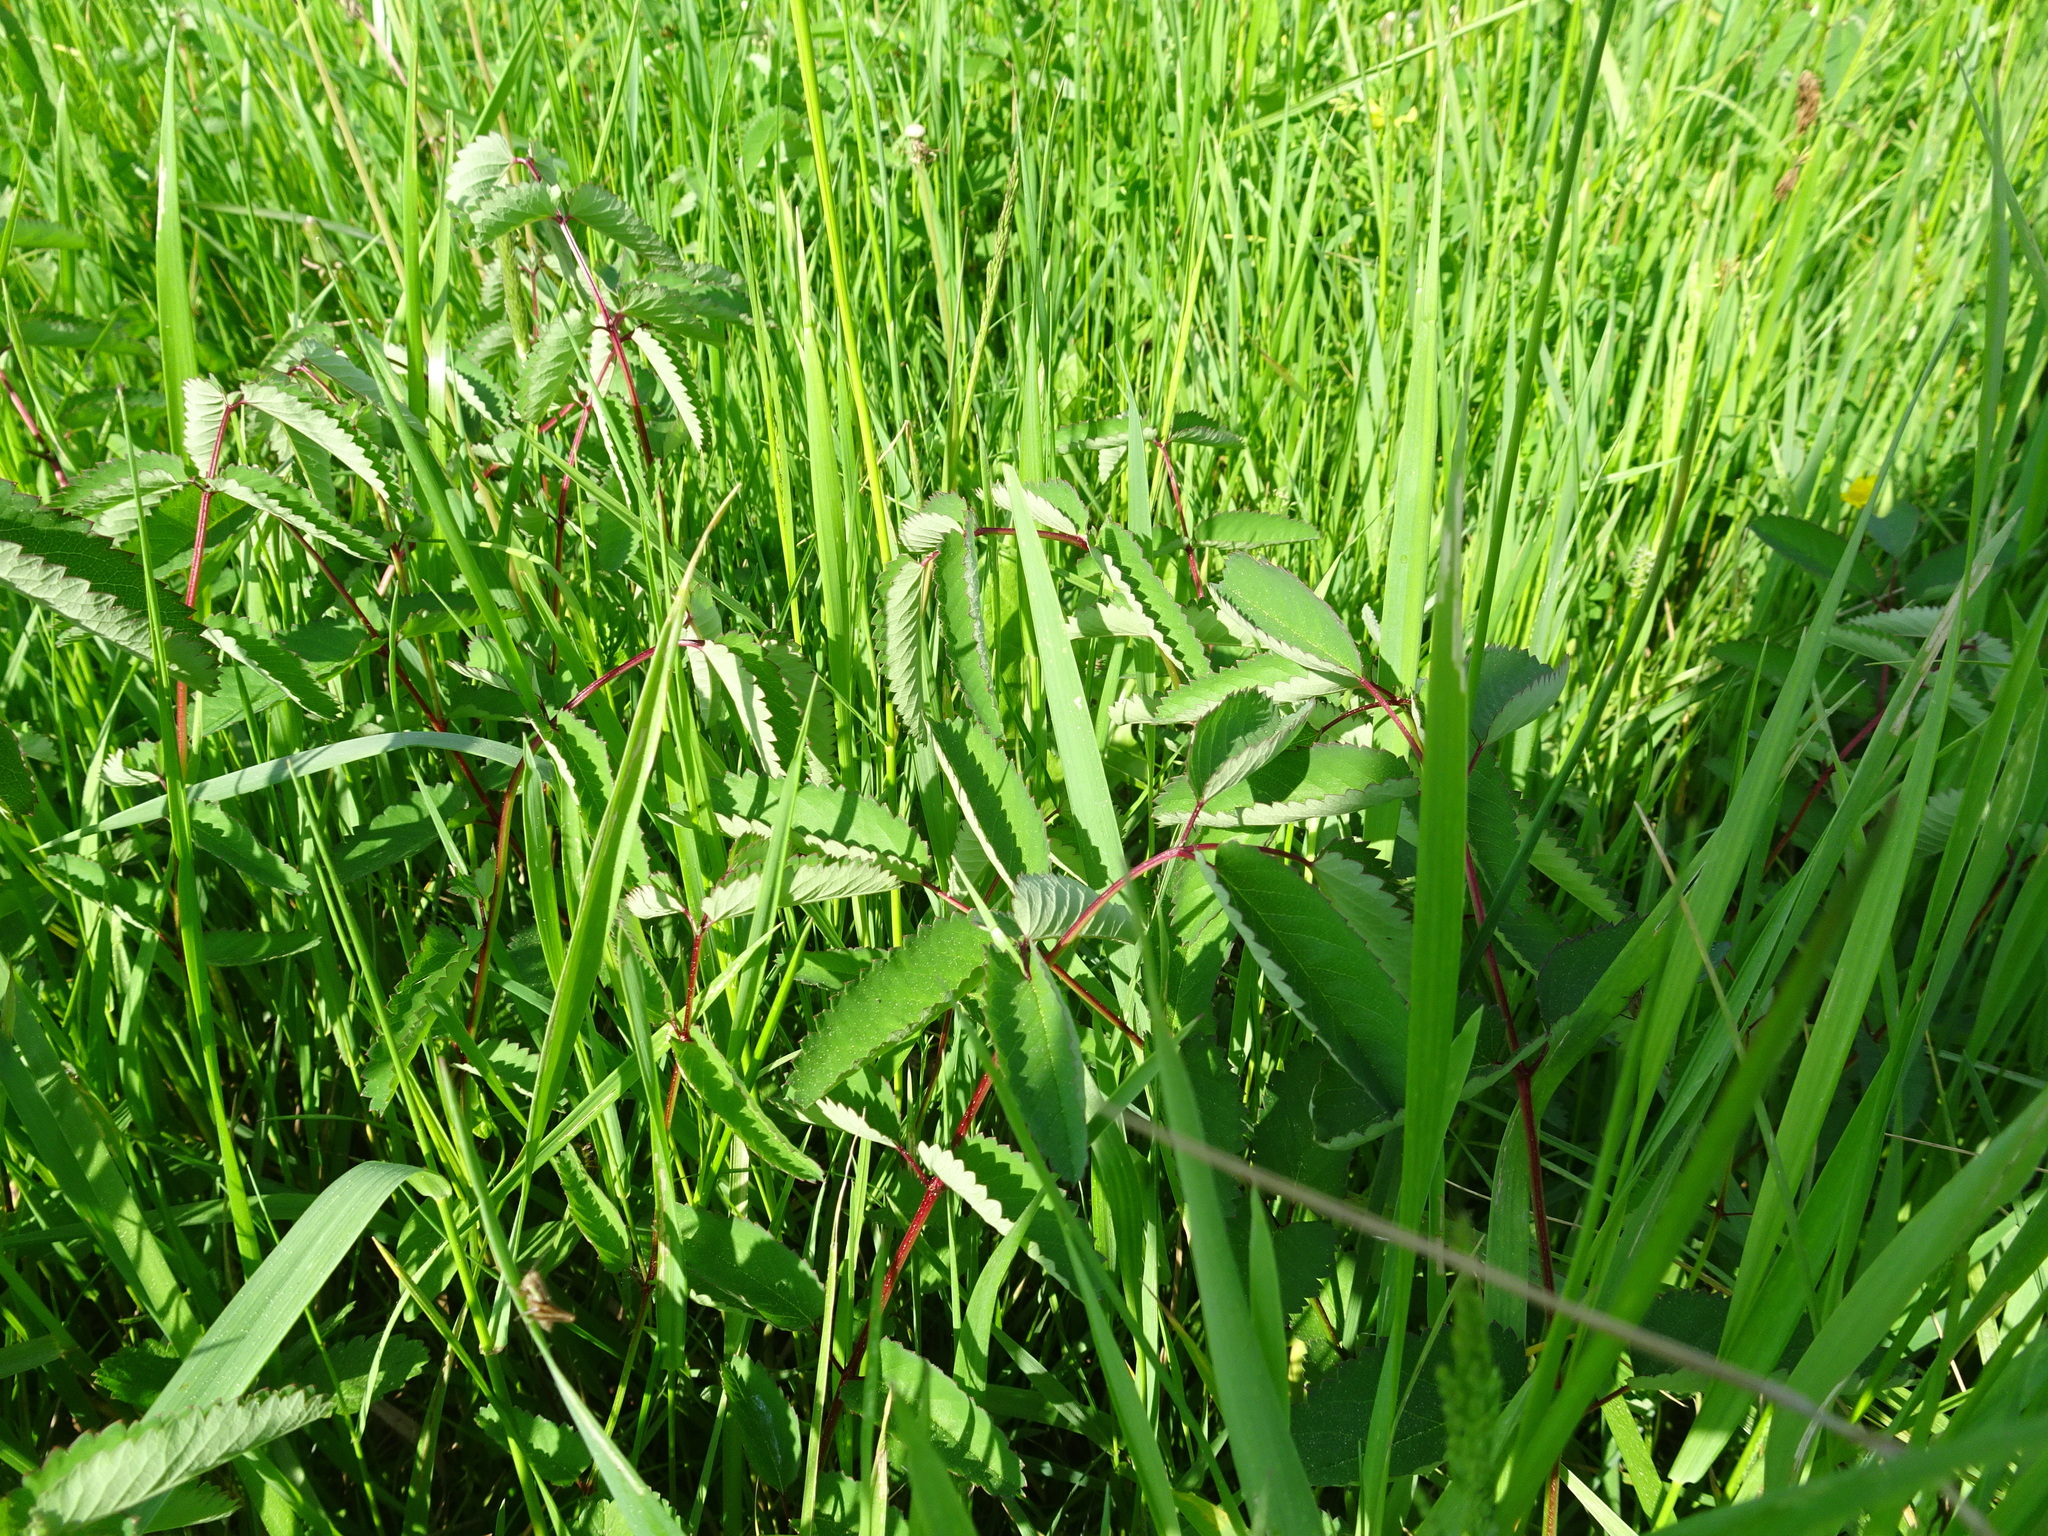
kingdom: Plantae
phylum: Tracheophyta
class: Magnoliopsida
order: Rosales
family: Rosaceae
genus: Sanguisorba
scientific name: Sanguisorba officinalis
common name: Great burnet
